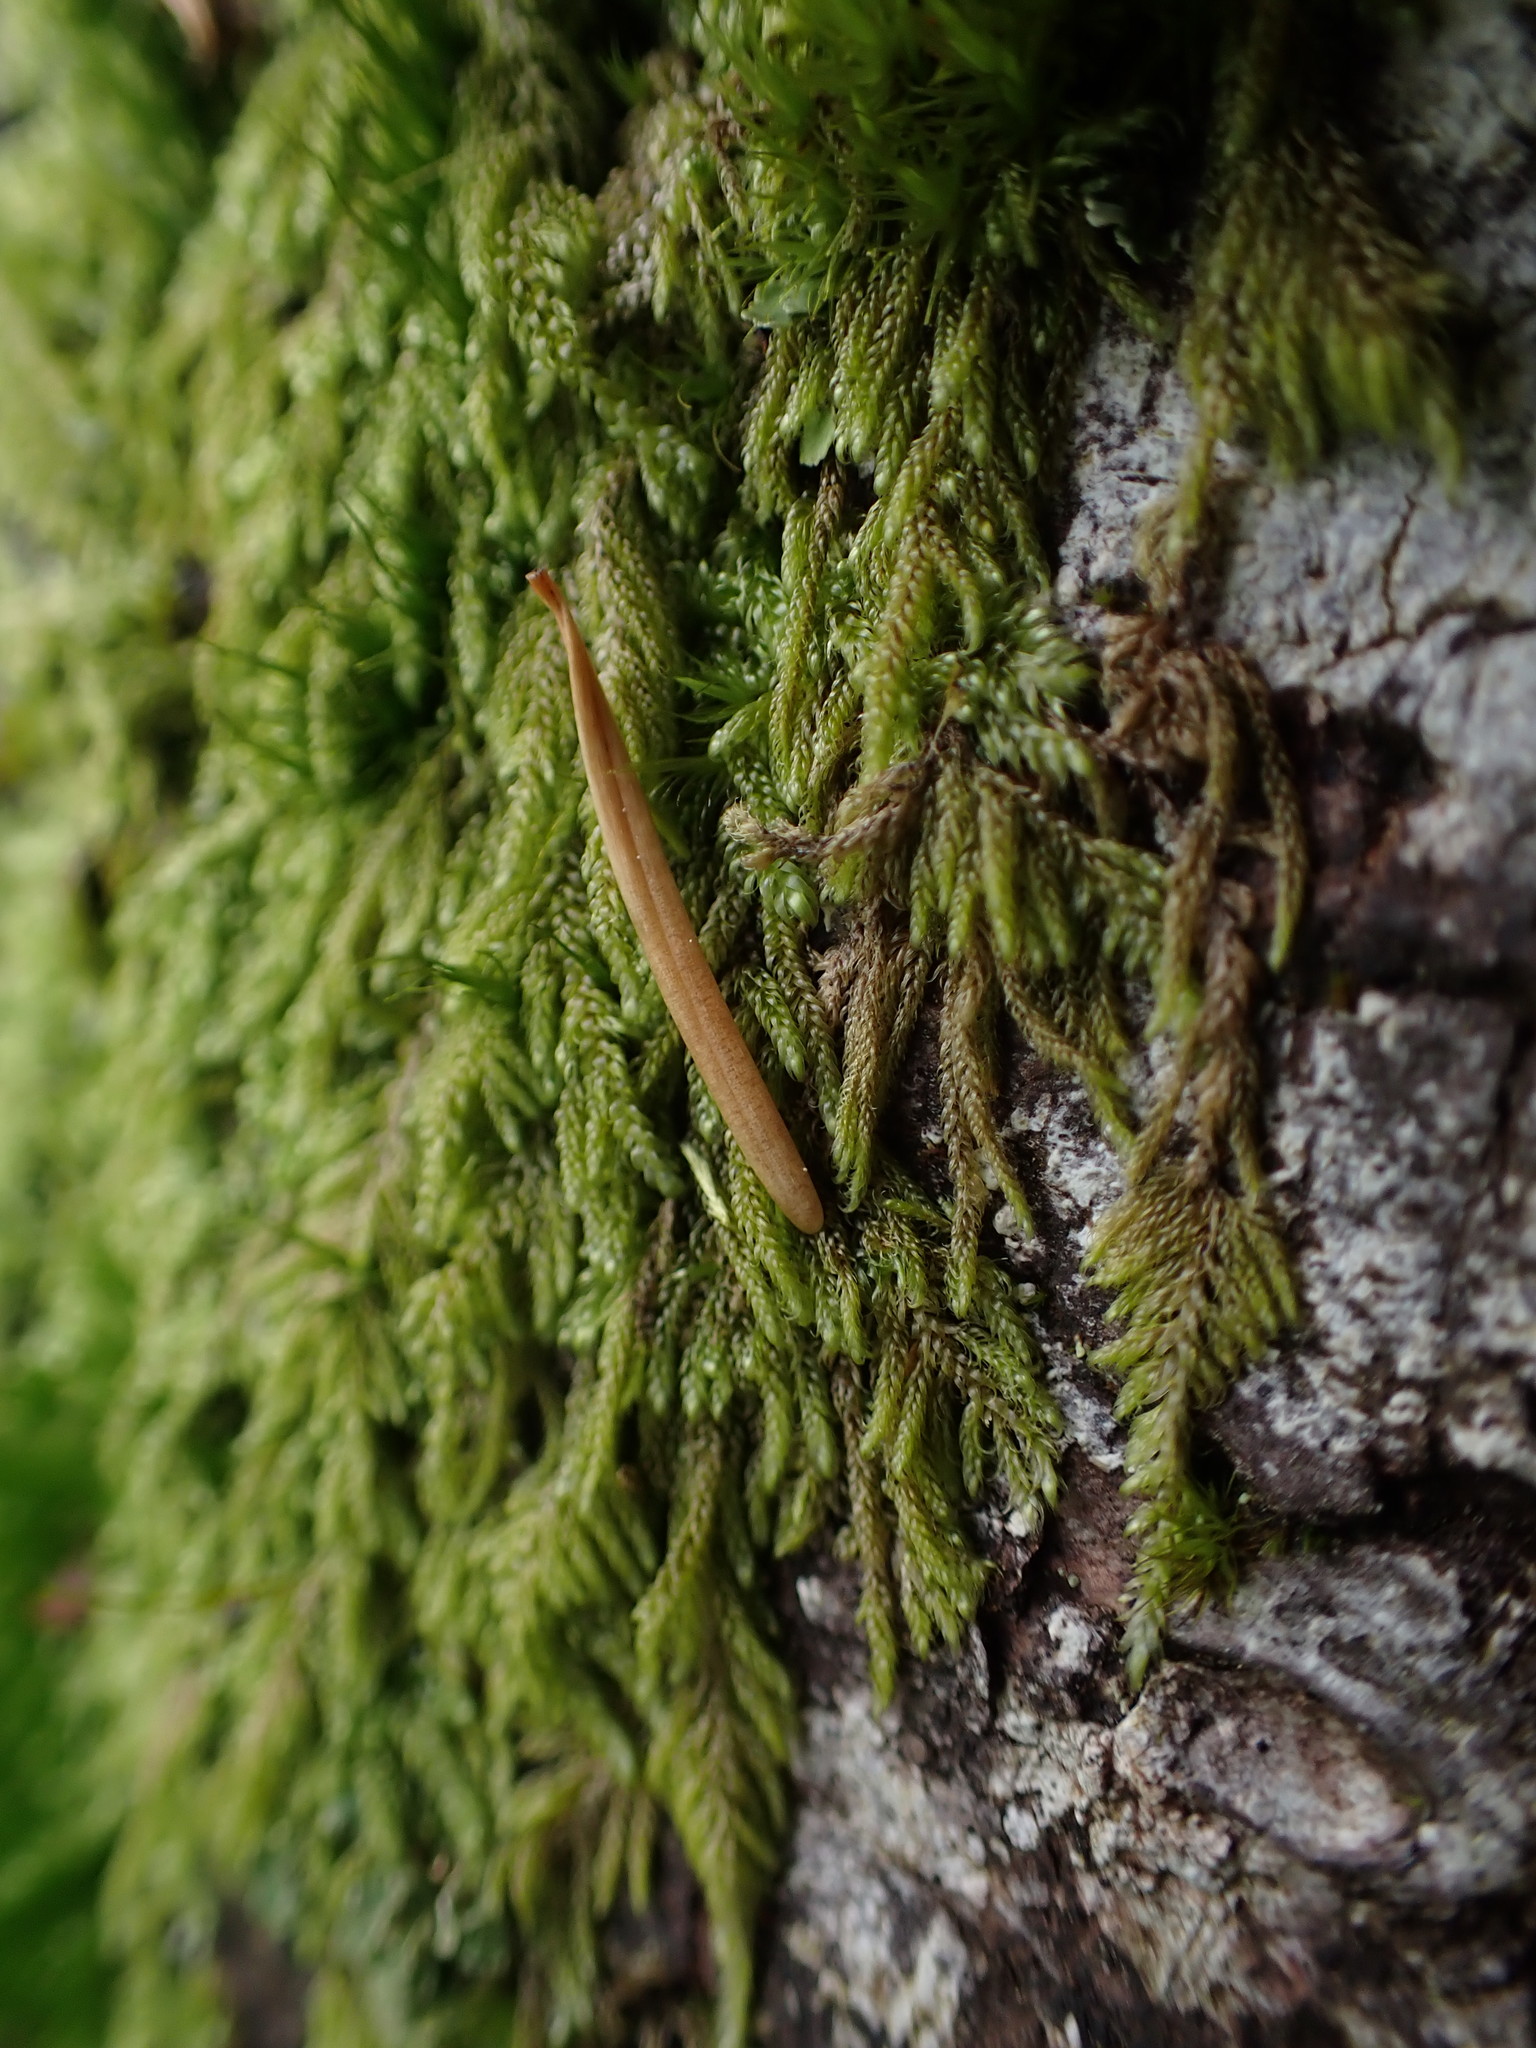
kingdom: Plantae
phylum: Bryophyta
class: Bryopsida
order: Hypnales
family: Pylaisiadelphaceae
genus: Trochophyllohypnum
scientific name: Trochophyllohypnum circinale
